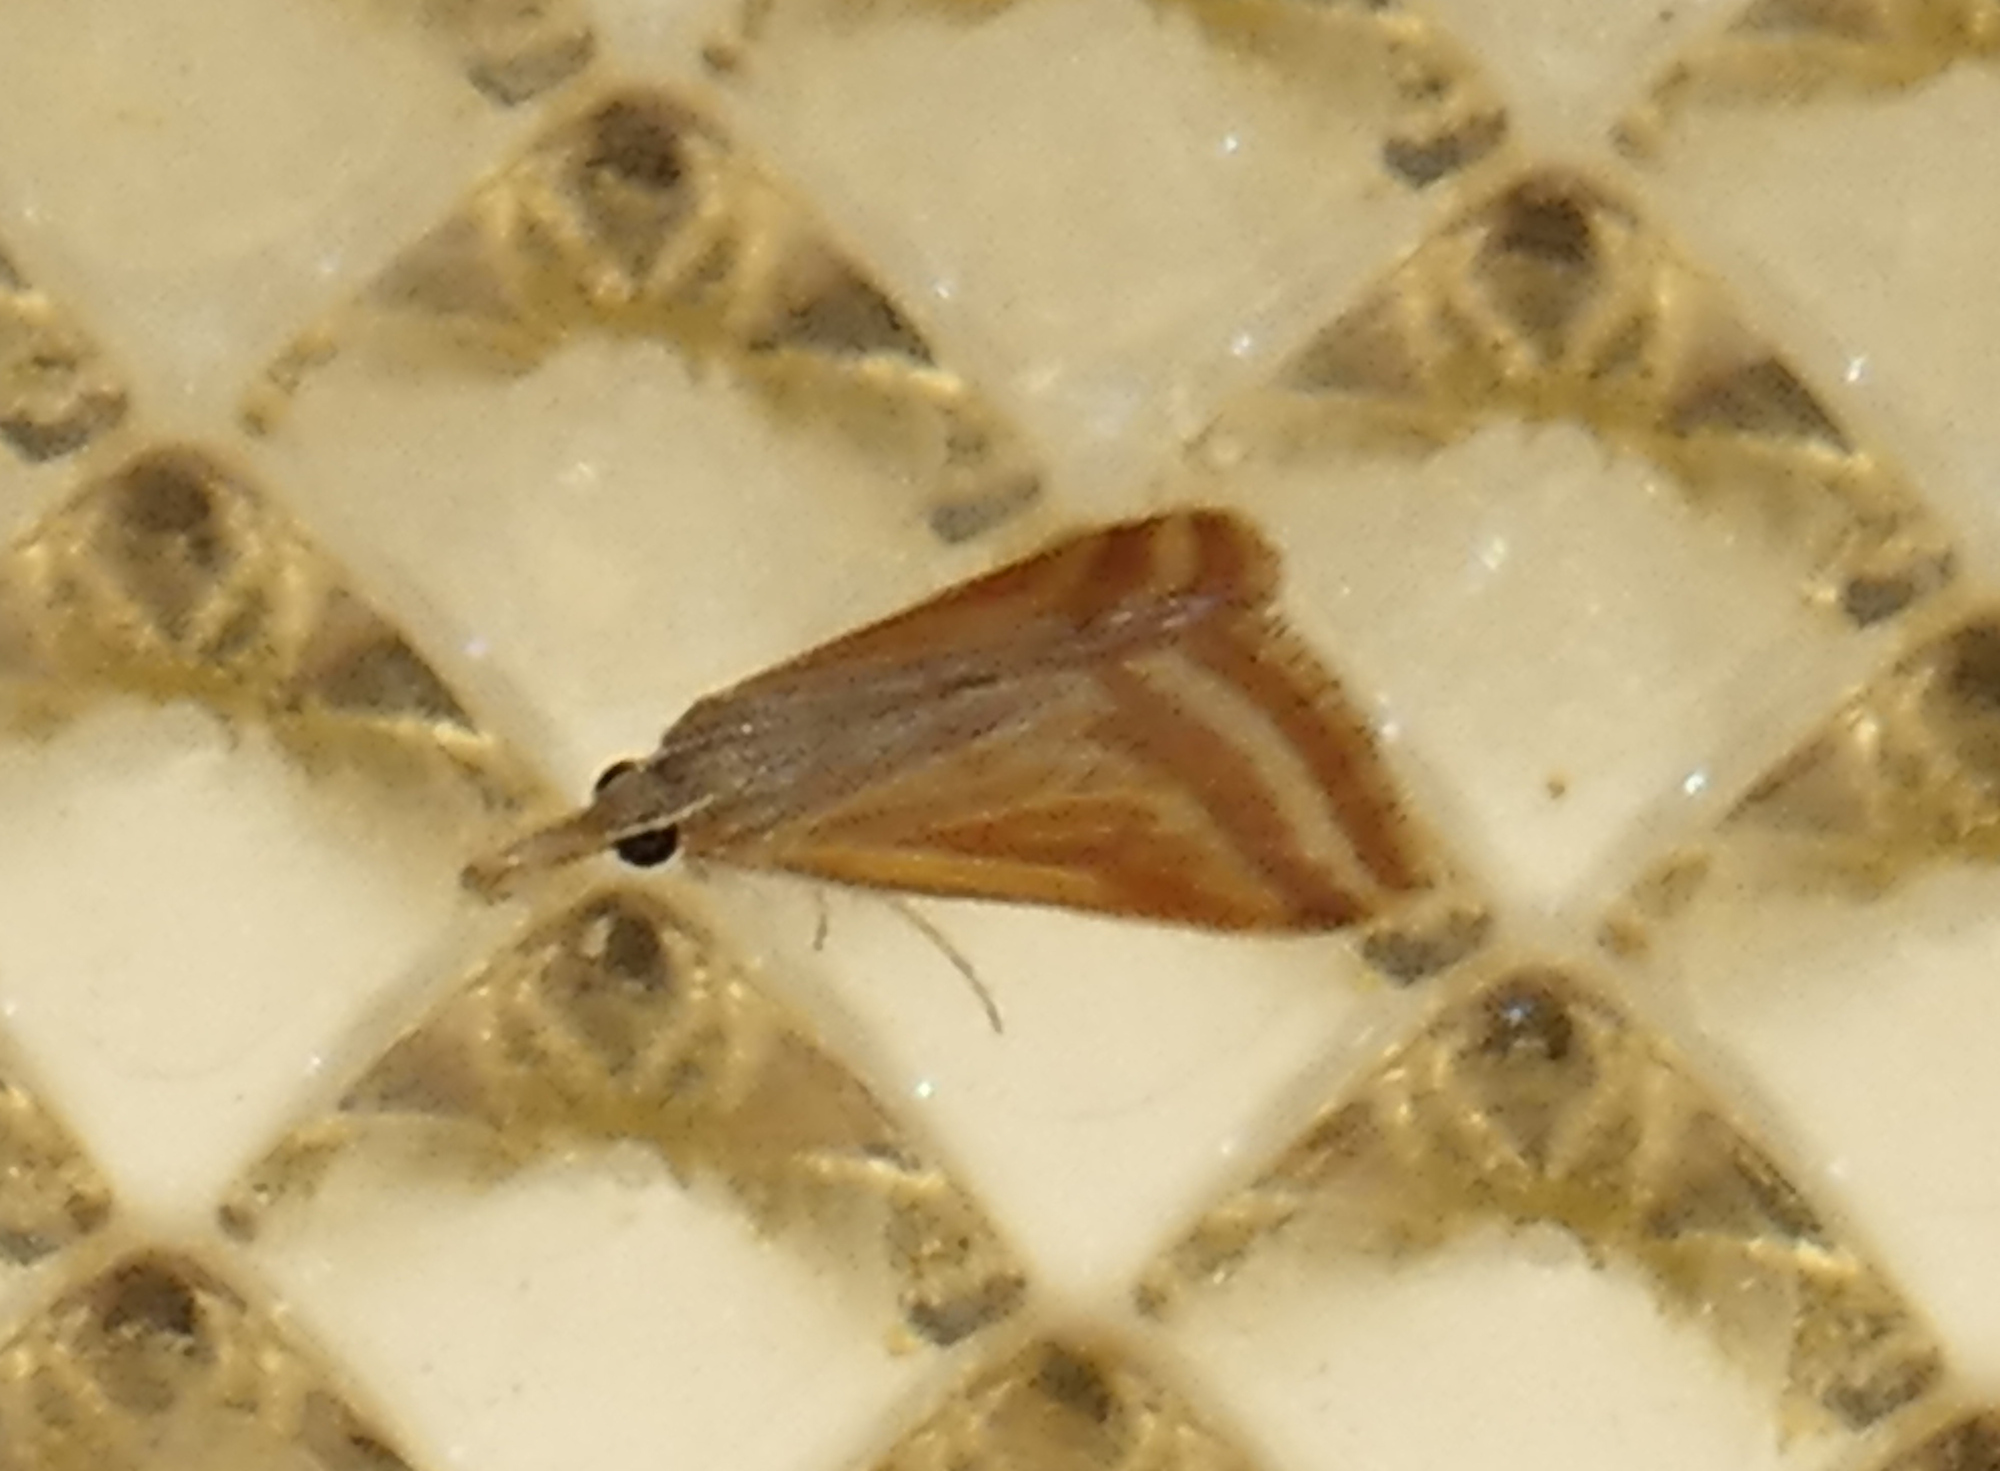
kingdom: Animalia
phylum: Arthropoda
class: Insecta
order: Lepidoptera
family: Crambidae
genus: Microtheoris
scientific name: Microtheoris ophionalis
